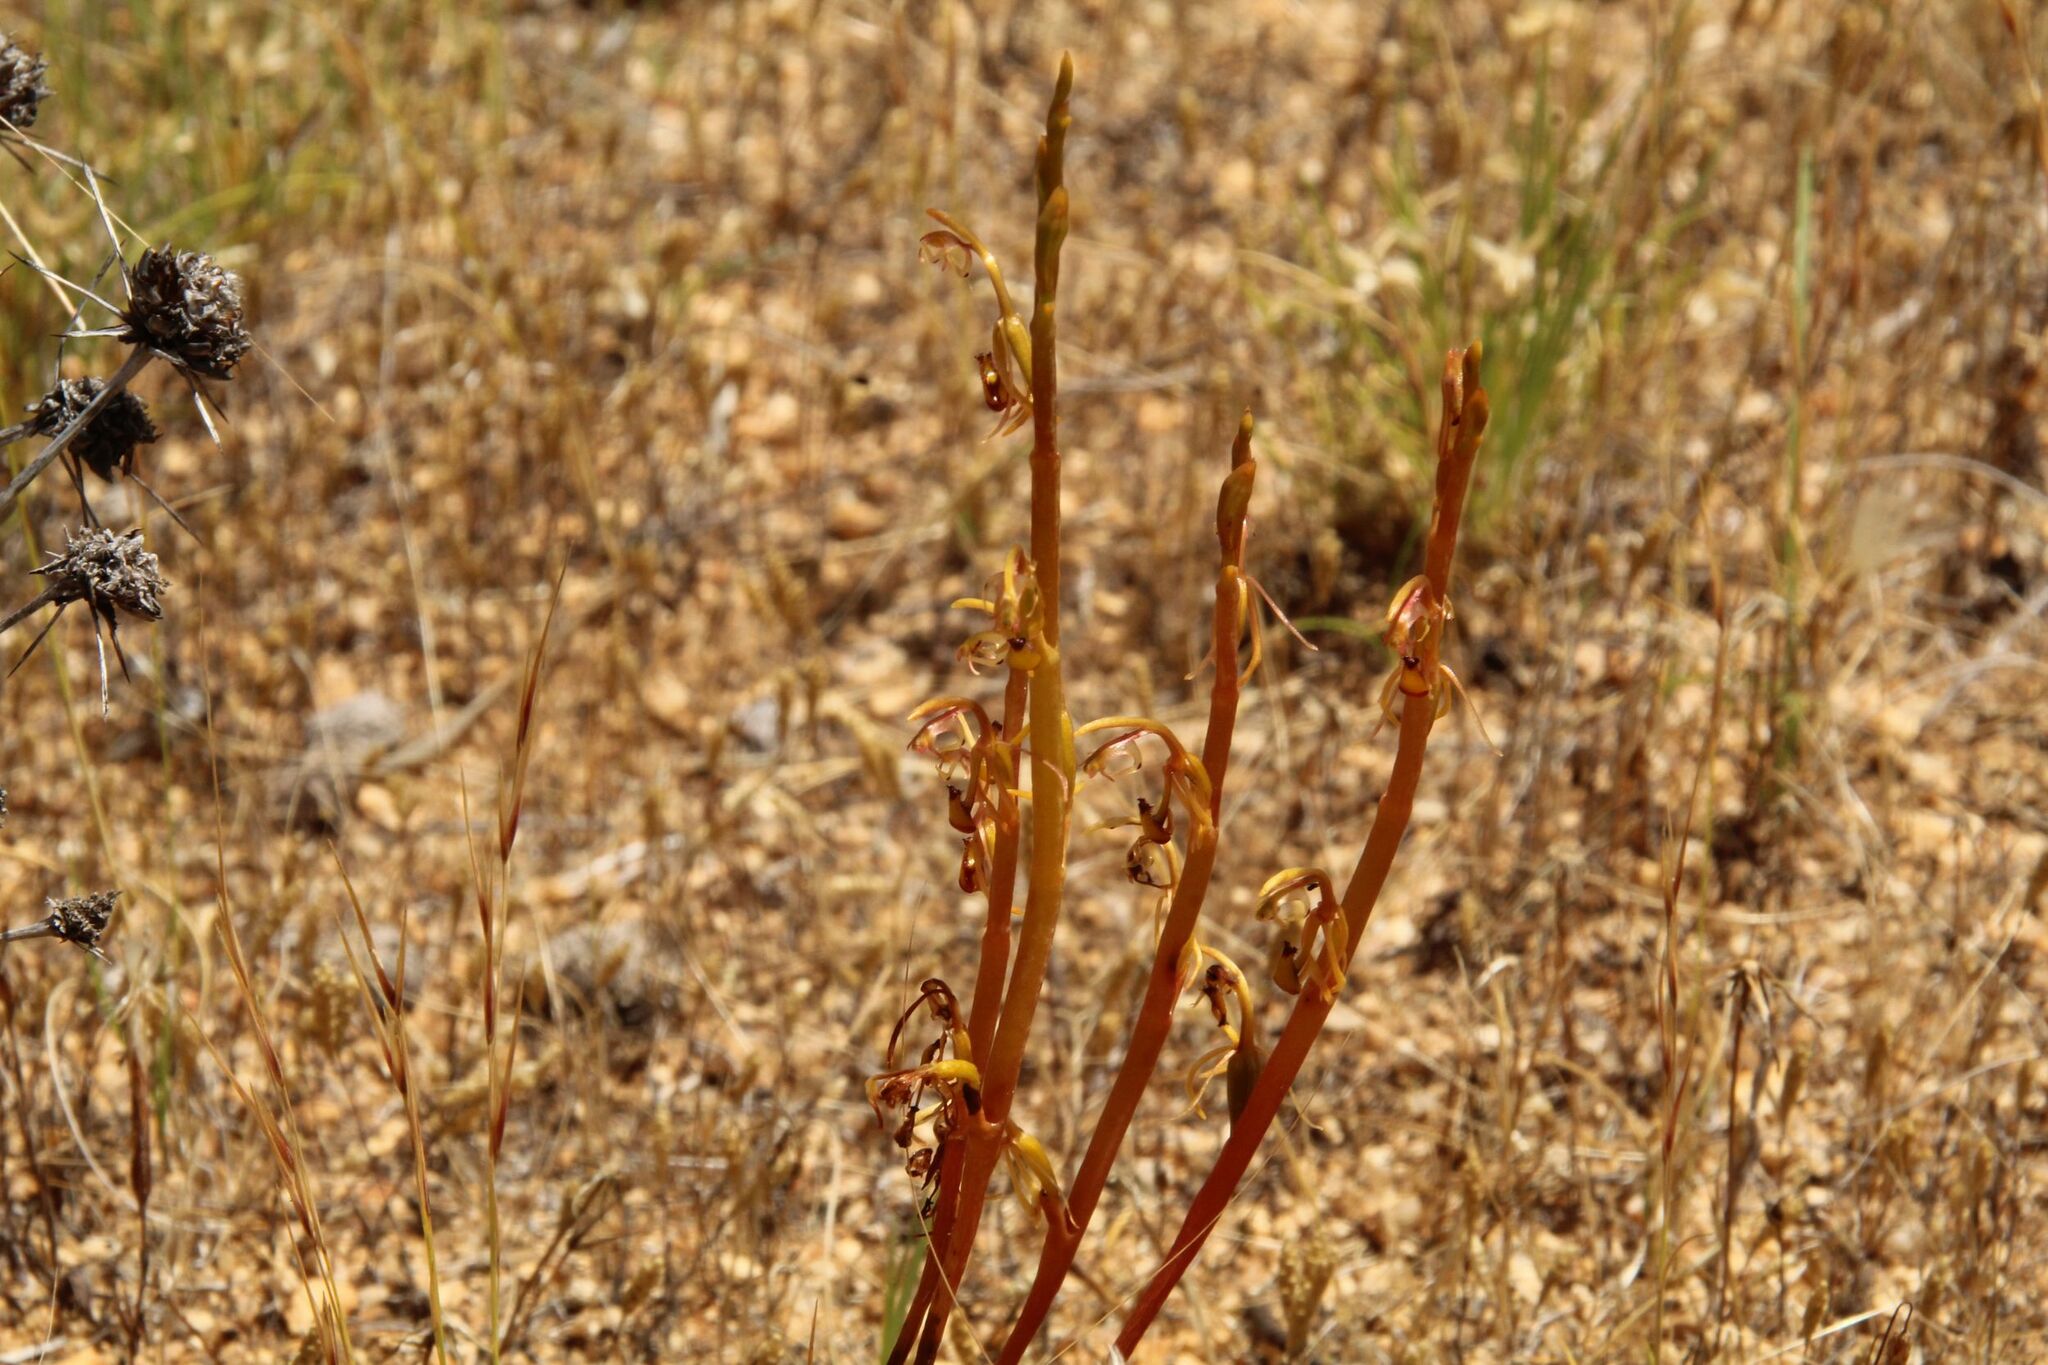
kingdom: Plantae
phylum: Tracheophyta
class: Liliopsida
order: Asparagales
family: Orchidaceae
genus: Spiculaea
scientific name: Spiculaea ciliata
